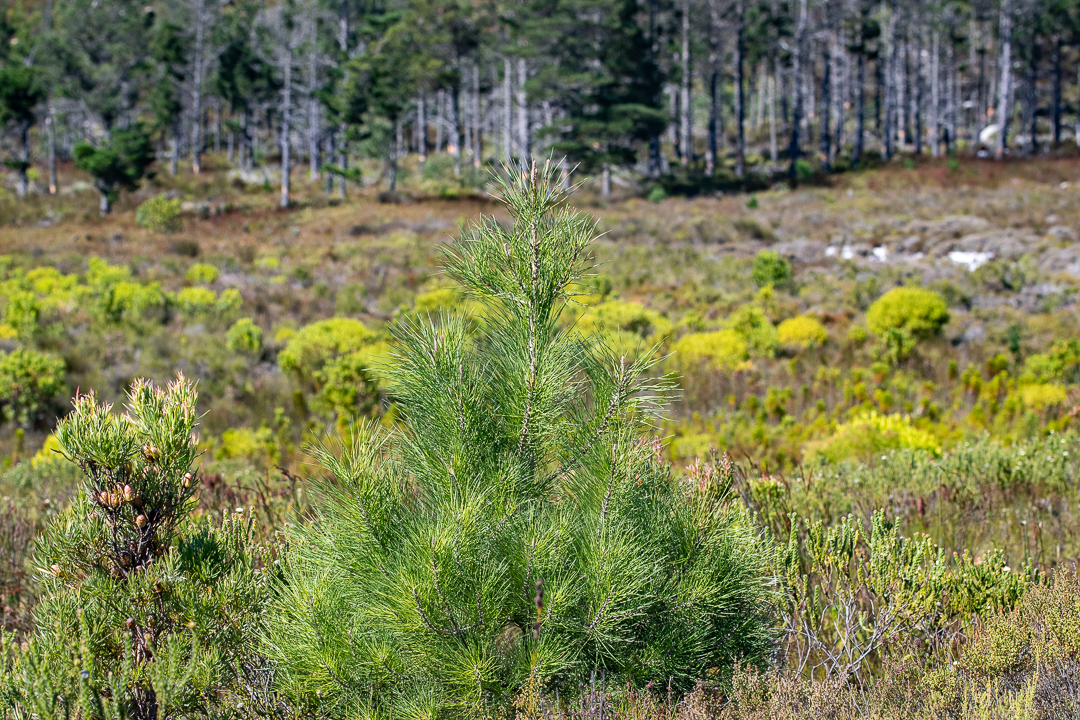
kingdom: Plantae
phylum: Tracheophyta
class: Pinopsida
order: Pinales
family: Pinaceae
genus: Pinus
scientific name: Pinus pinaster
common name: Maritime pine
